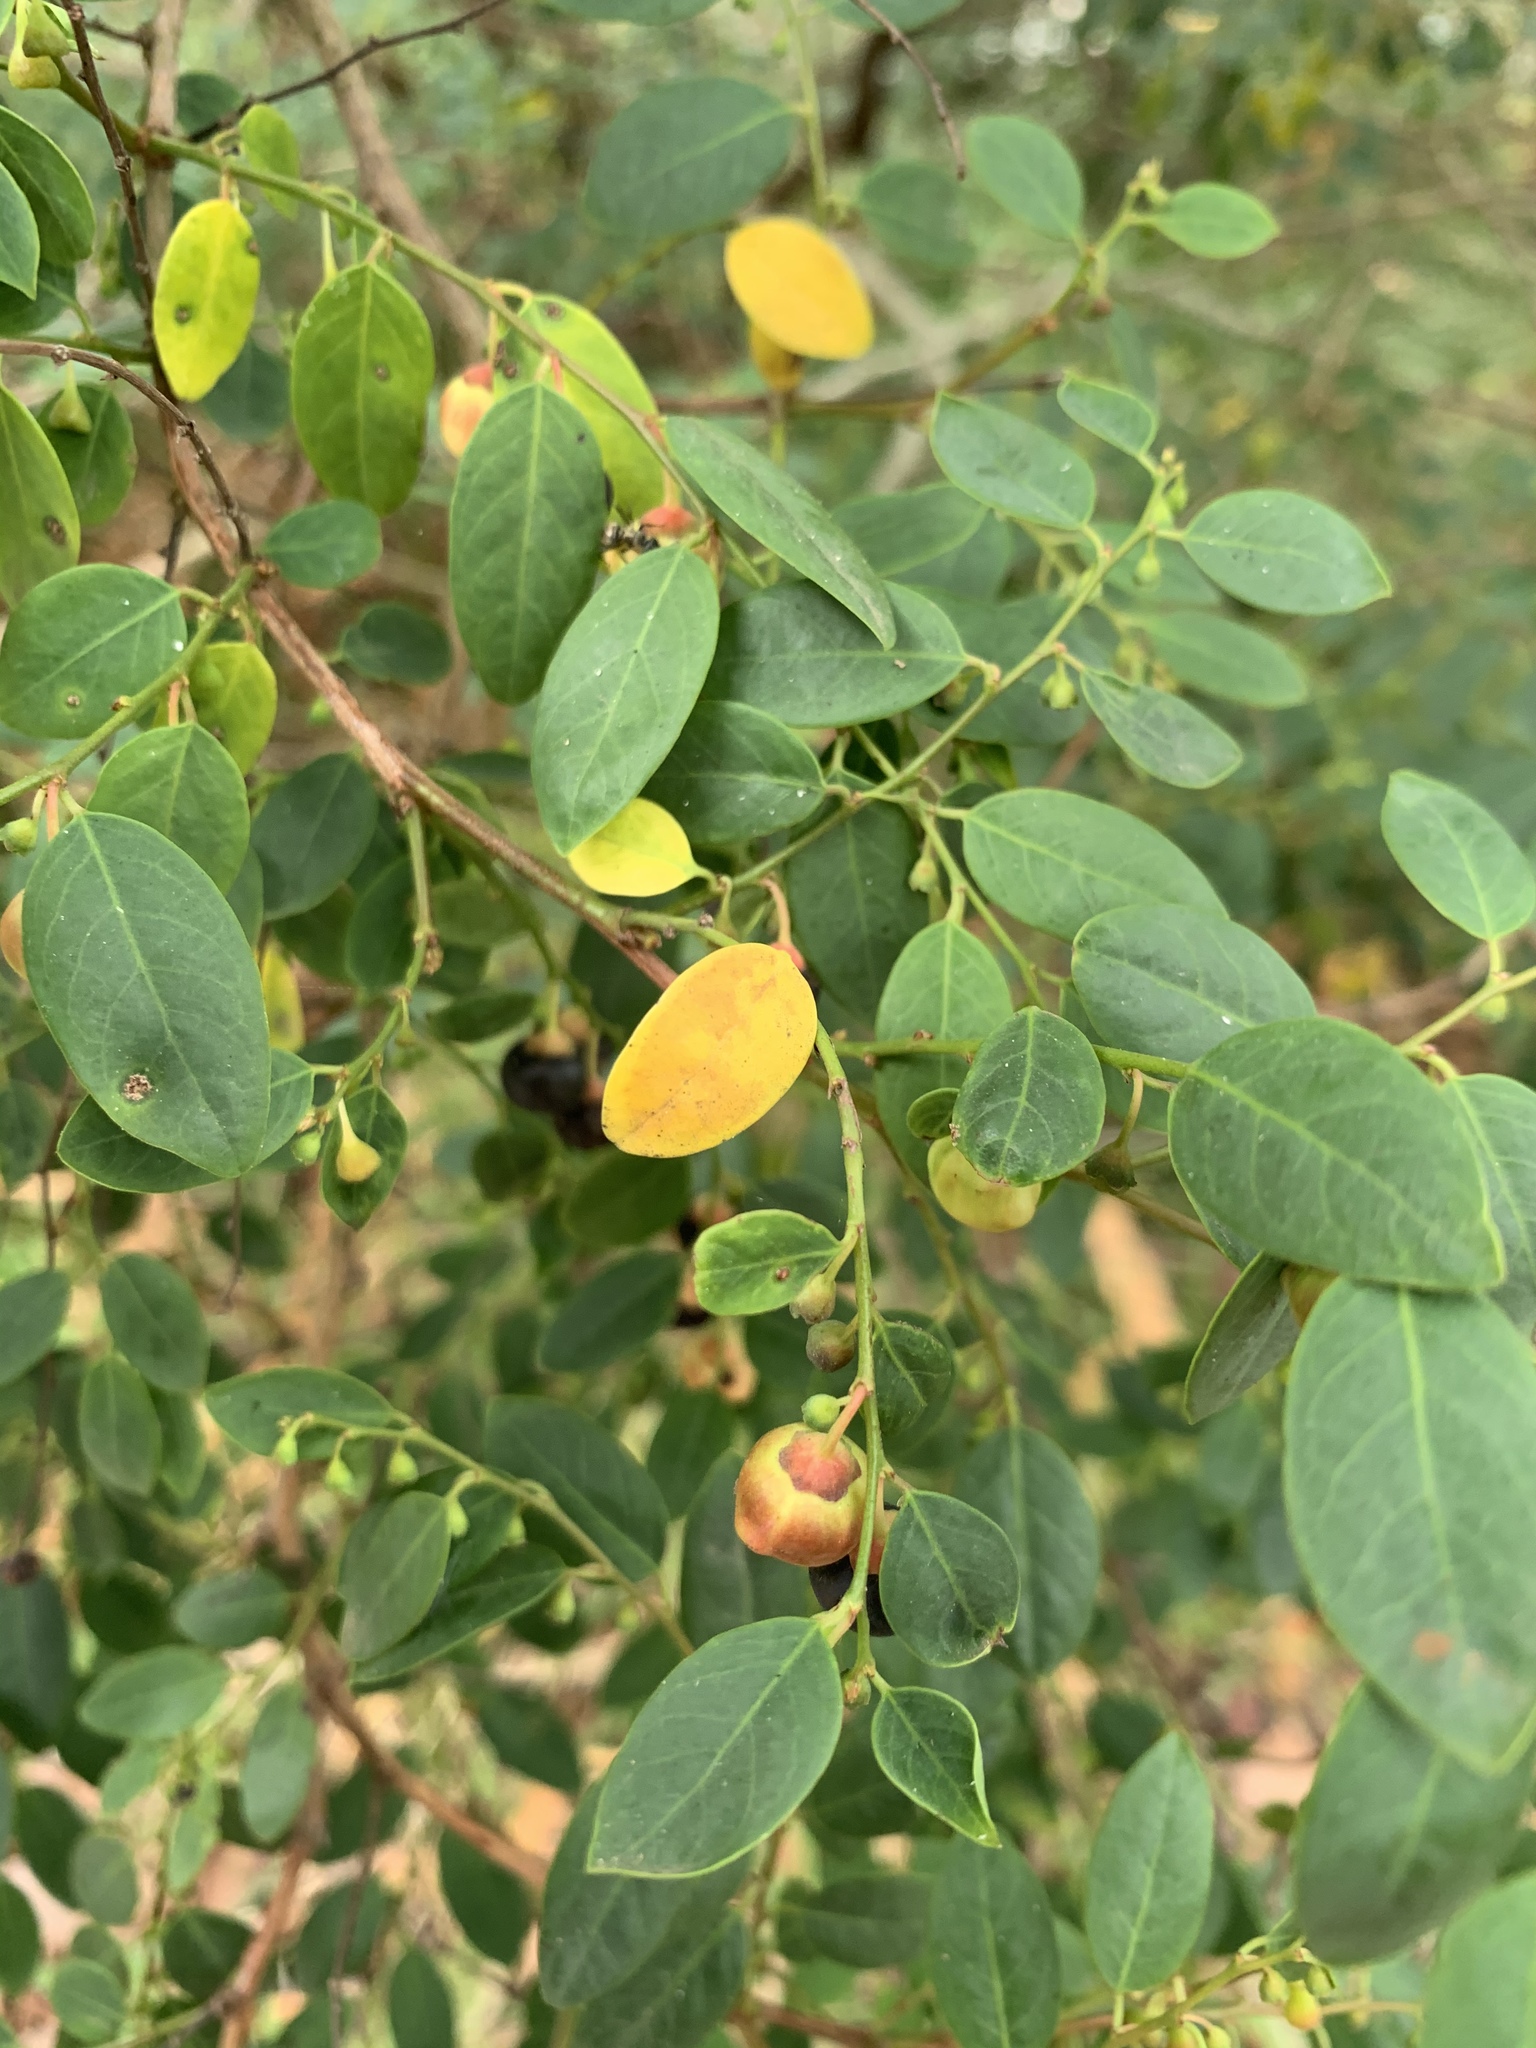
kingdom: Plantae
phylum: Tracheophyta
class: Magnoliopsida
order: Malpighiales
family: Phyllanthaceae
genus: Breynia
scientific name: Breynia oblongifolia
